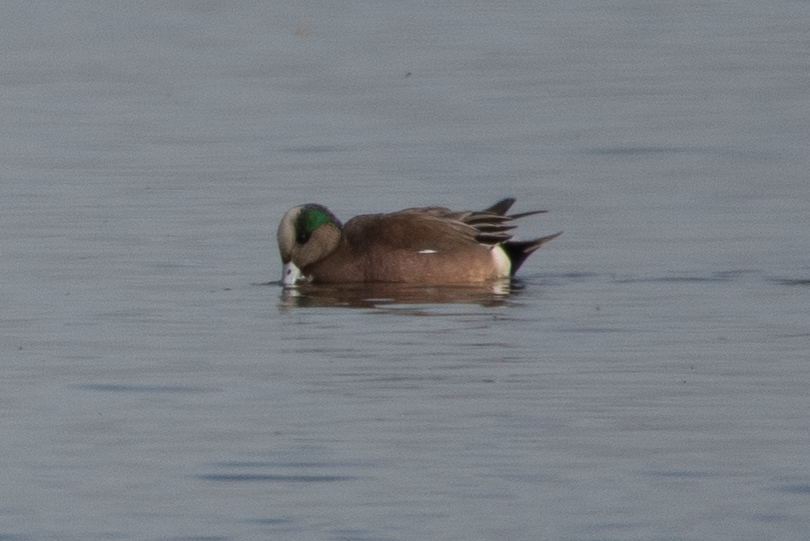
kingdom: Animalia
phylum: Chordata
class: Aves
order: Anseriformes
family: Anatidae
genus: Mareca
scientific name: Mareca americana
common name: American wigeon
